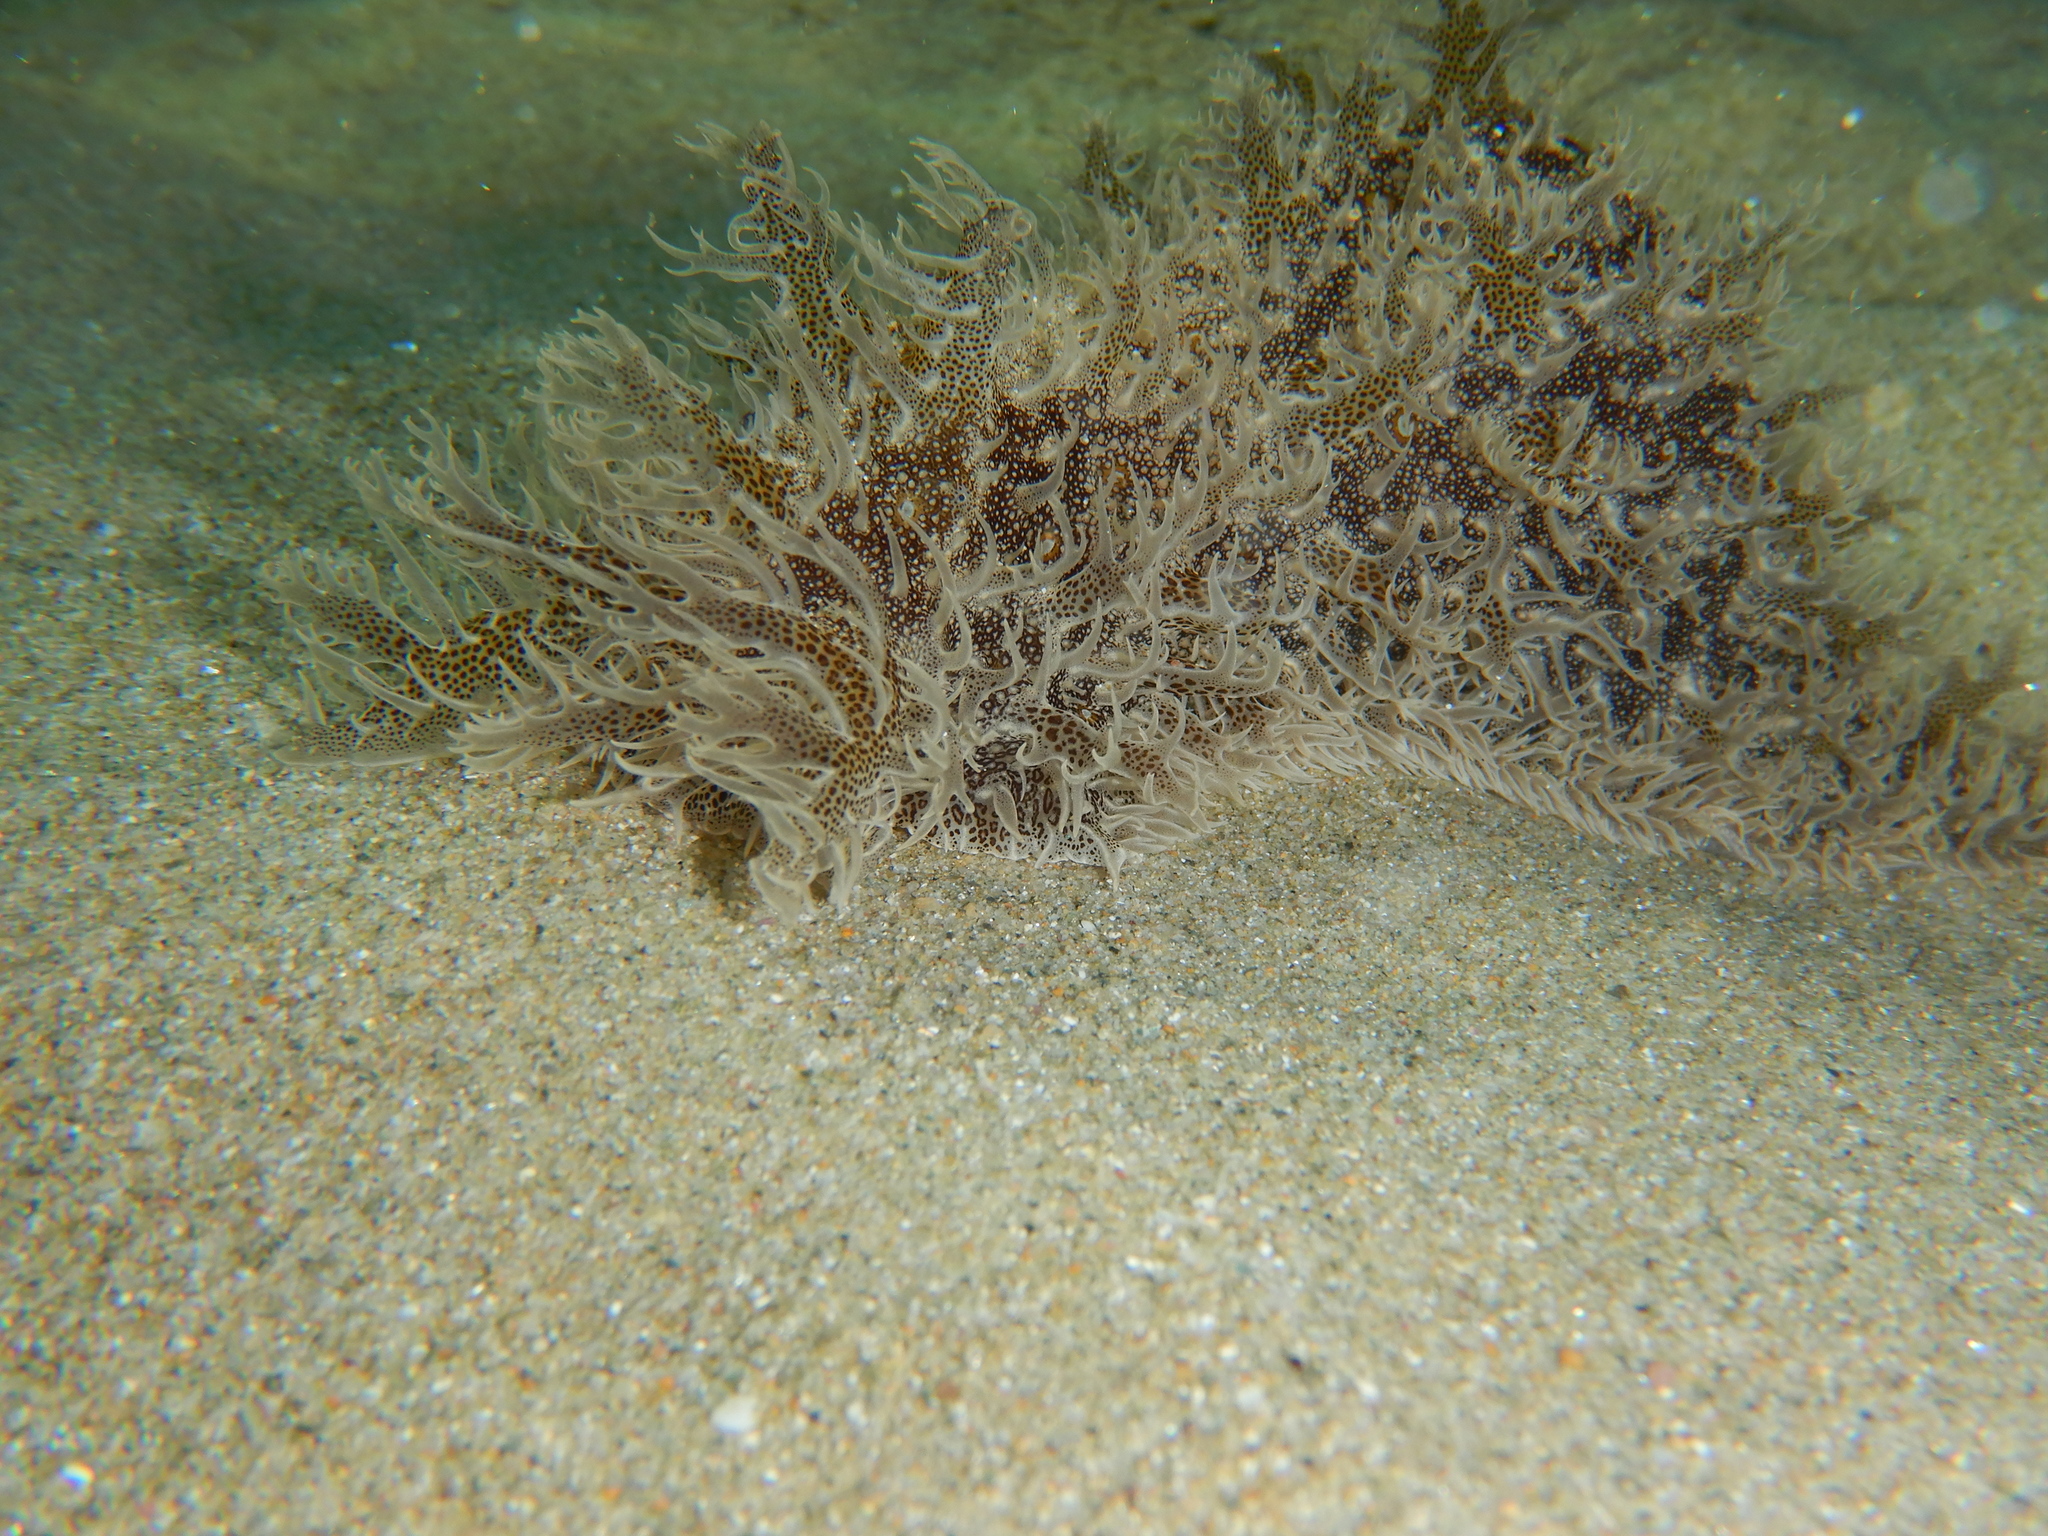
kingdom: Animalia
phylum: Mollusca
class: Gastropoda
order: Aplysiida
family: Aplysiidae
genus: Bursatella
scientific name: Bursatella leachii
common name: Shaggy sea hare
